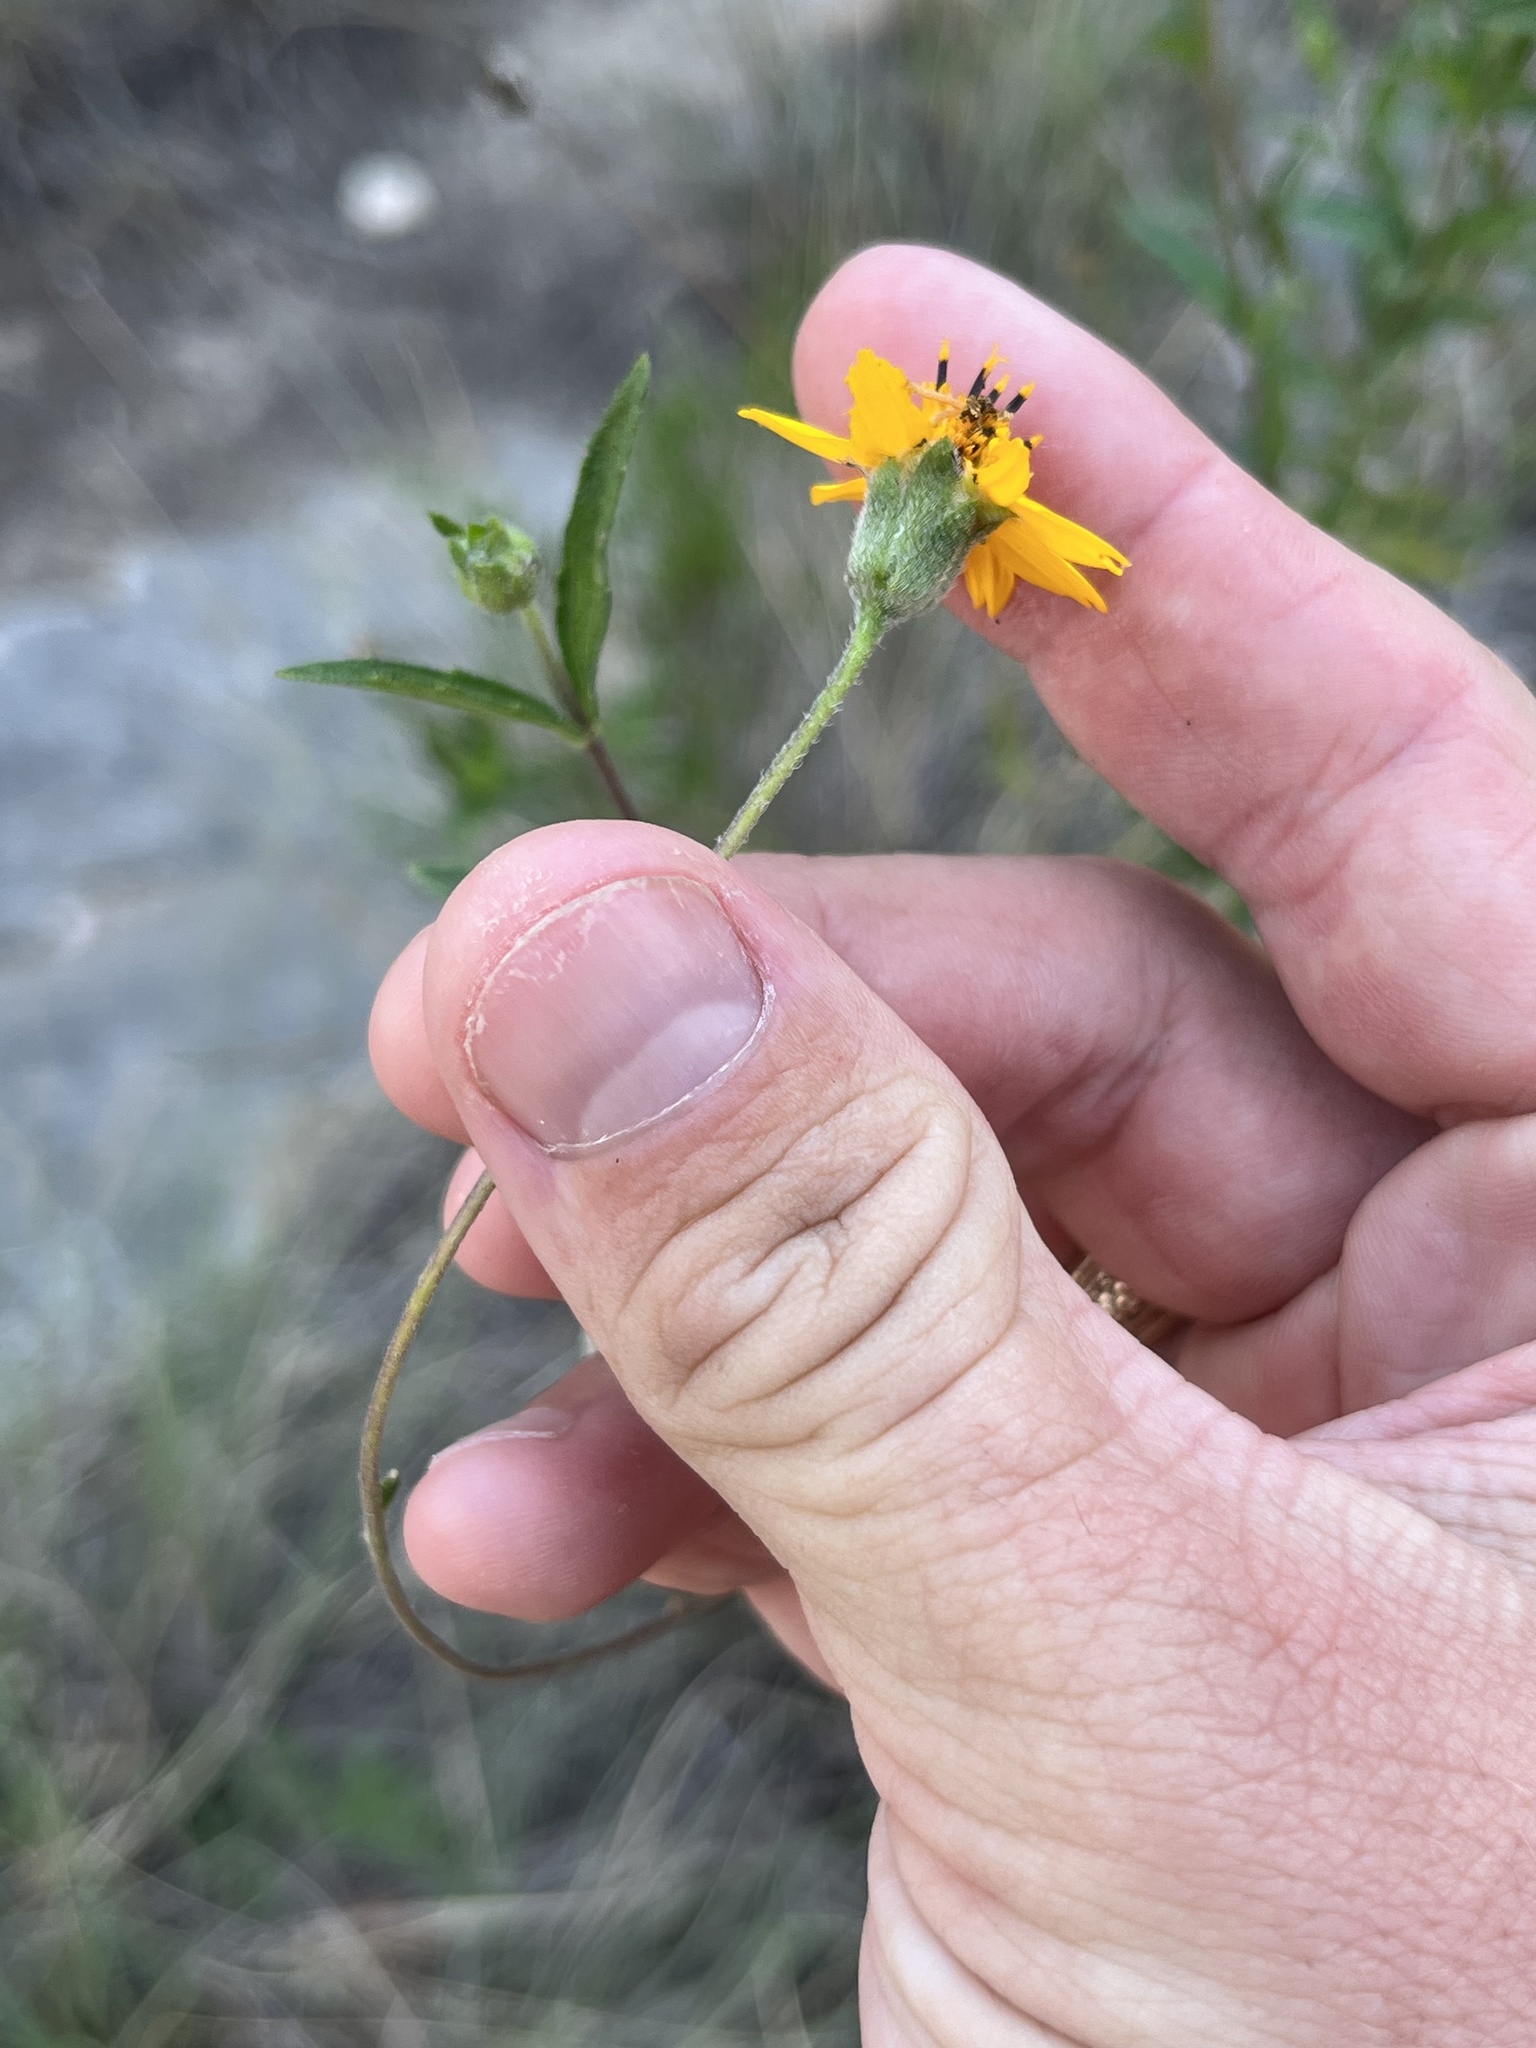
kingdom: Plantae
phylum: Tracheophyta
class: Magnoliopsida
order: Asterales
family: Asteraceae
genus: Wedelia
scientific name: Wedelia acapulcensis
